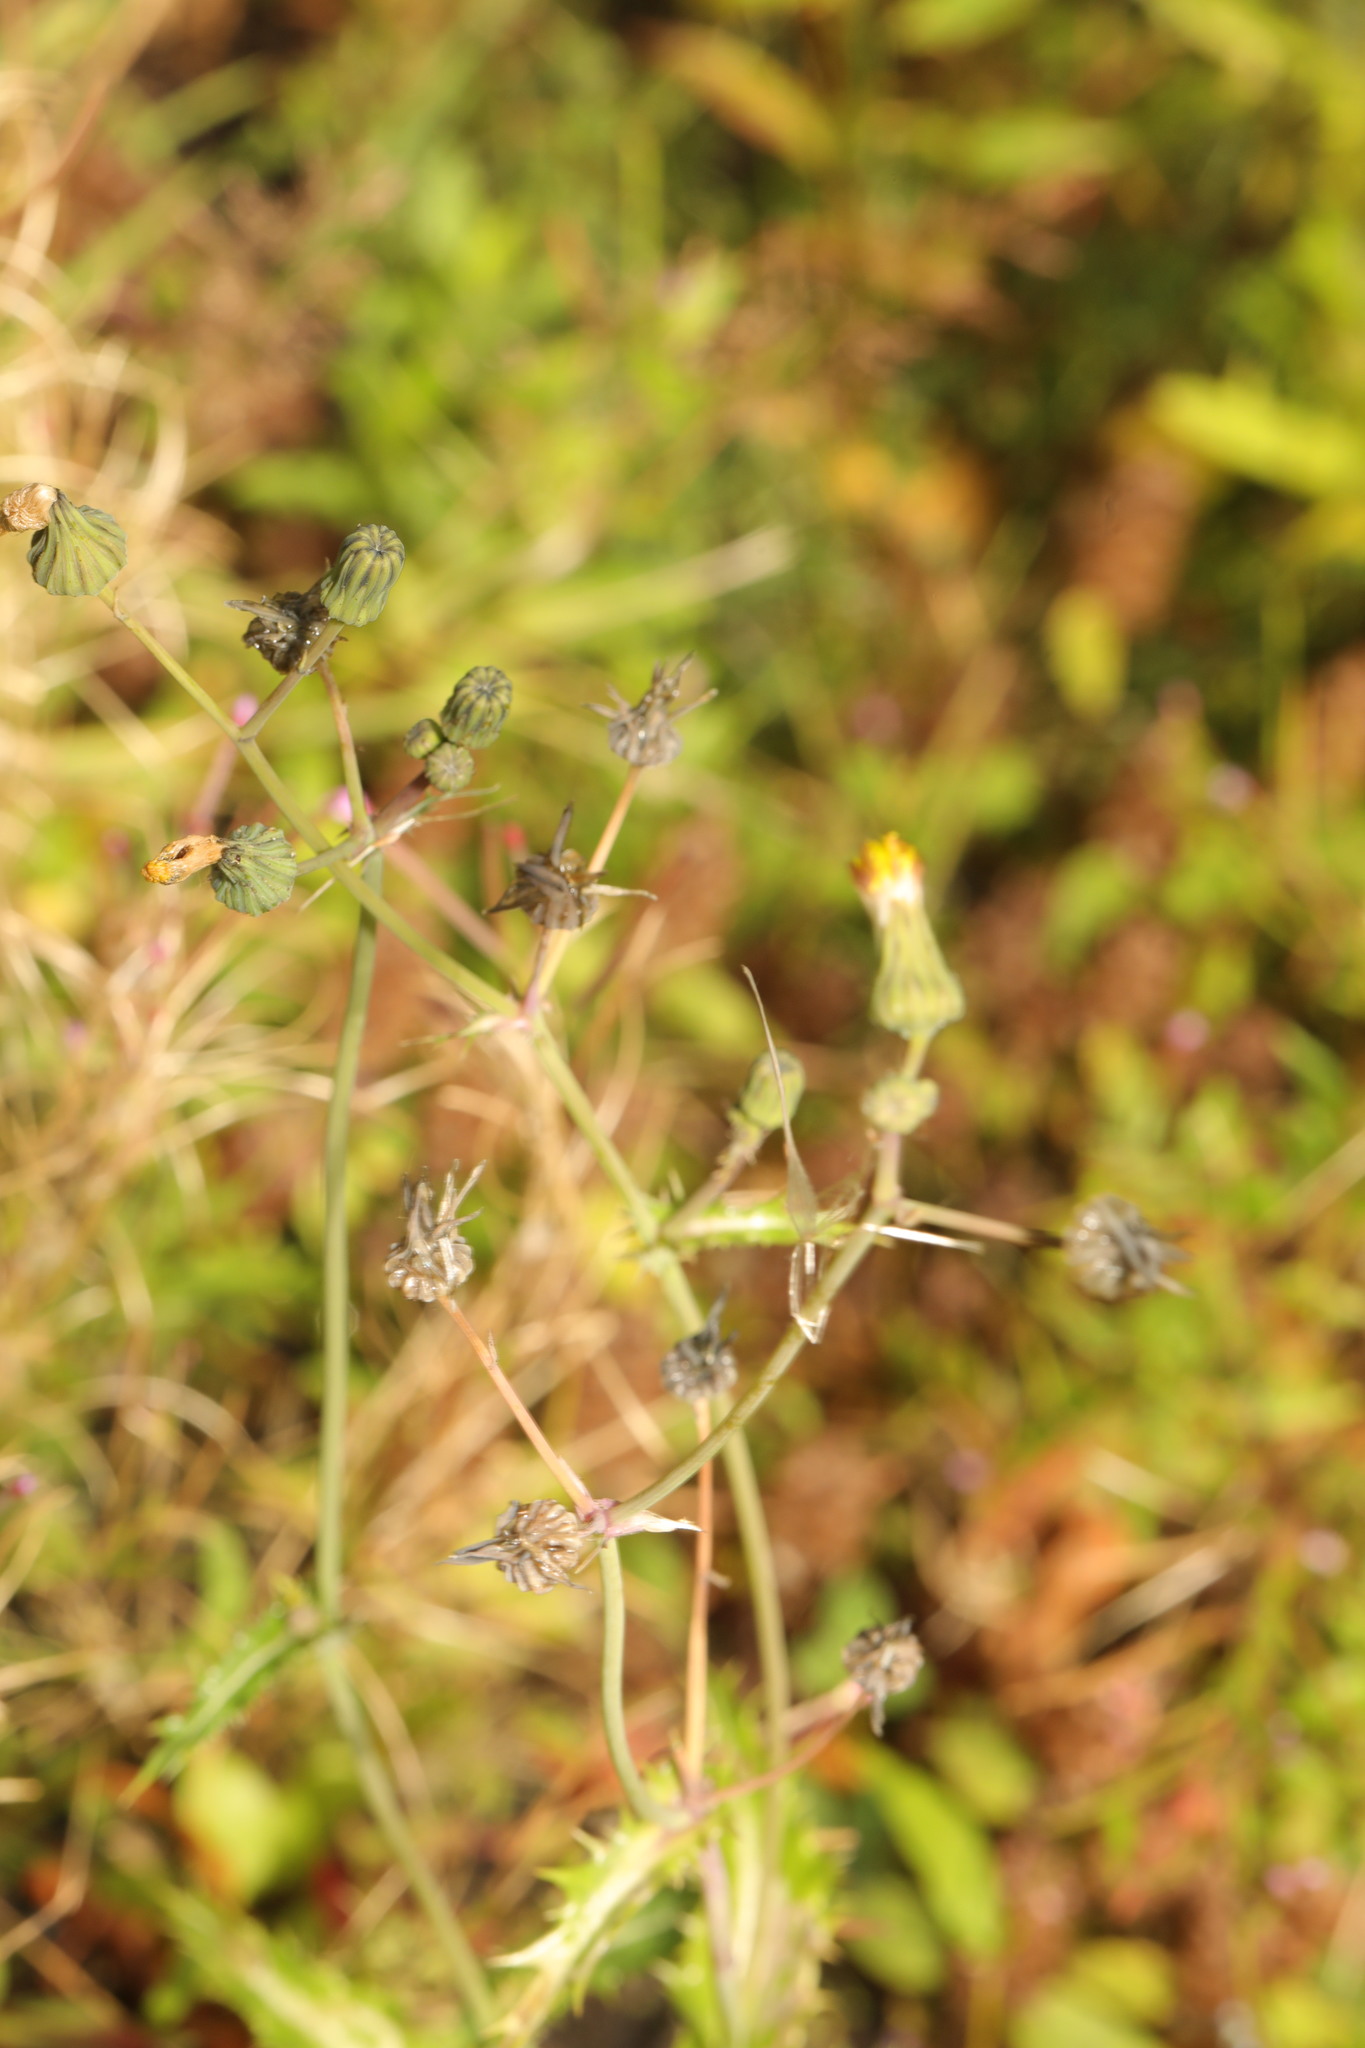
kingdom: Plantae
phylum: Tracheophyta
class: Magnoliopsida
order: Asterales
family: Asteraceae
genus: Sonchus
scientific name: Sonchus asper
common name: Prickly sow-thistle
